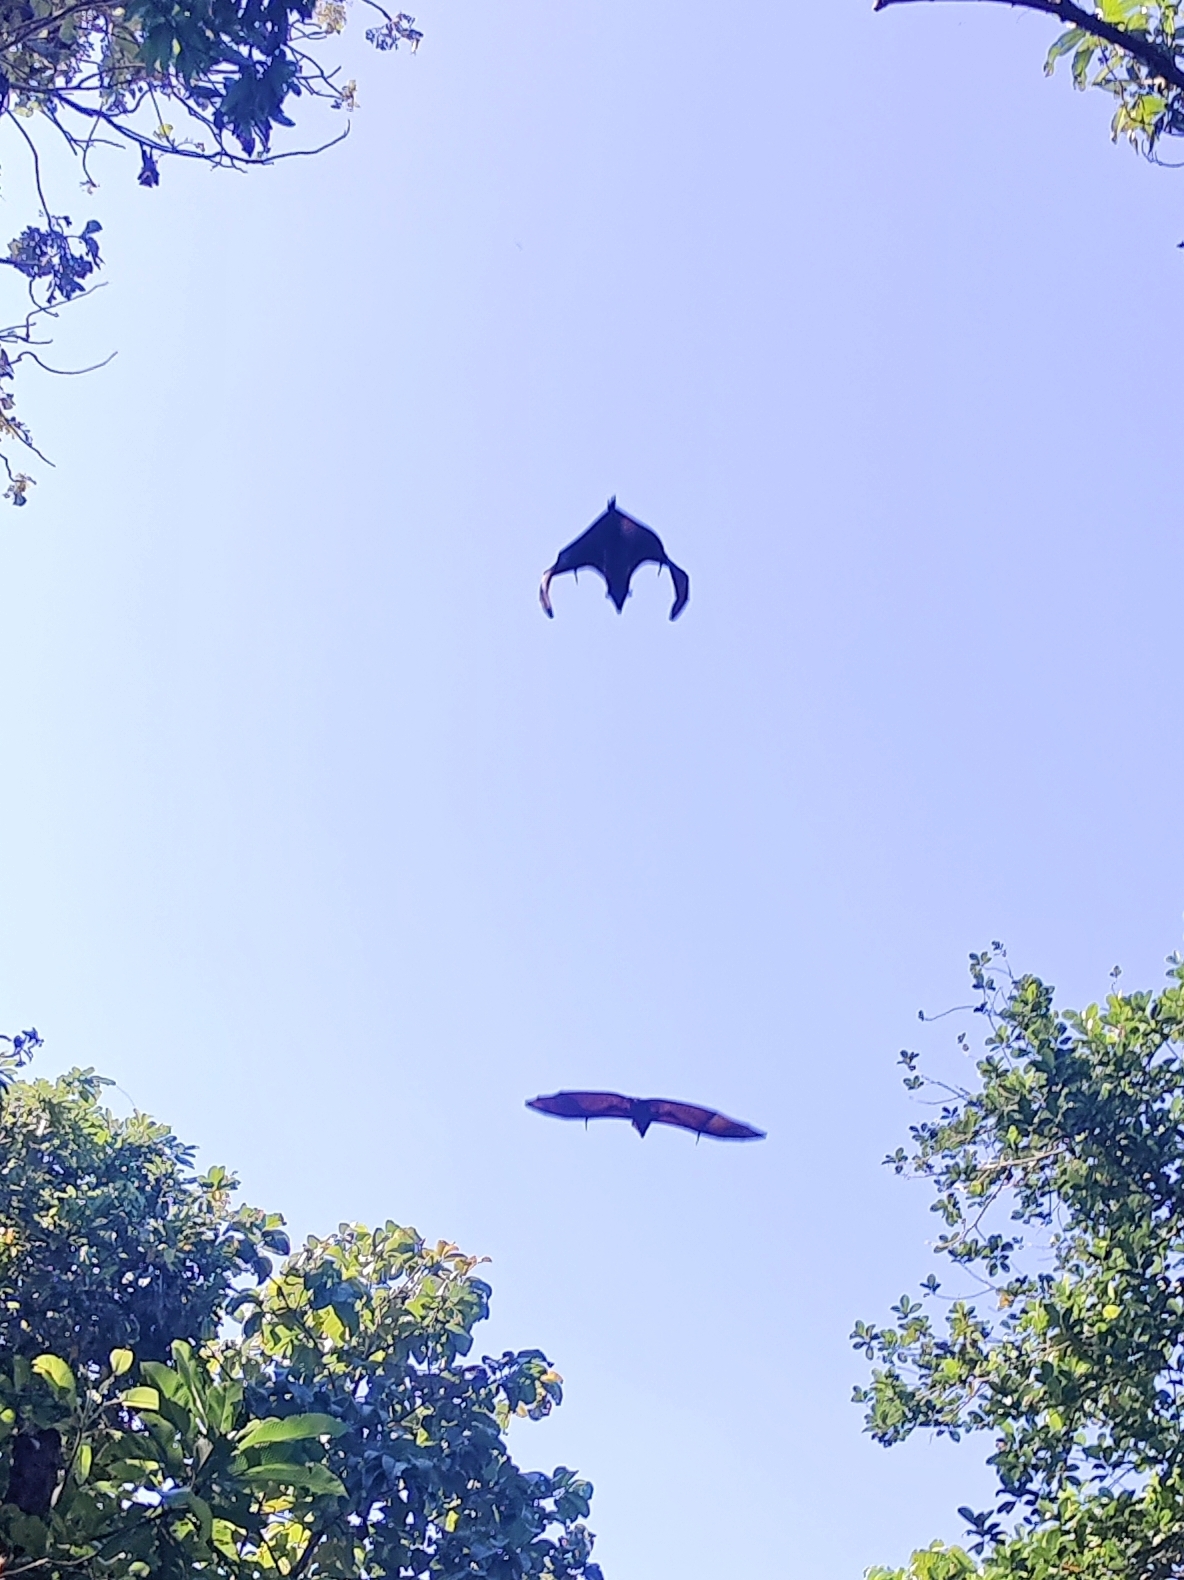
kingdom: Animalia
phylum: Chordata
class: Mammalia
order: Chiroptera
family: Pteropodidae
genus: Pteropus
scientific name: Pteropus vampyrus
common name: Large flying fox
